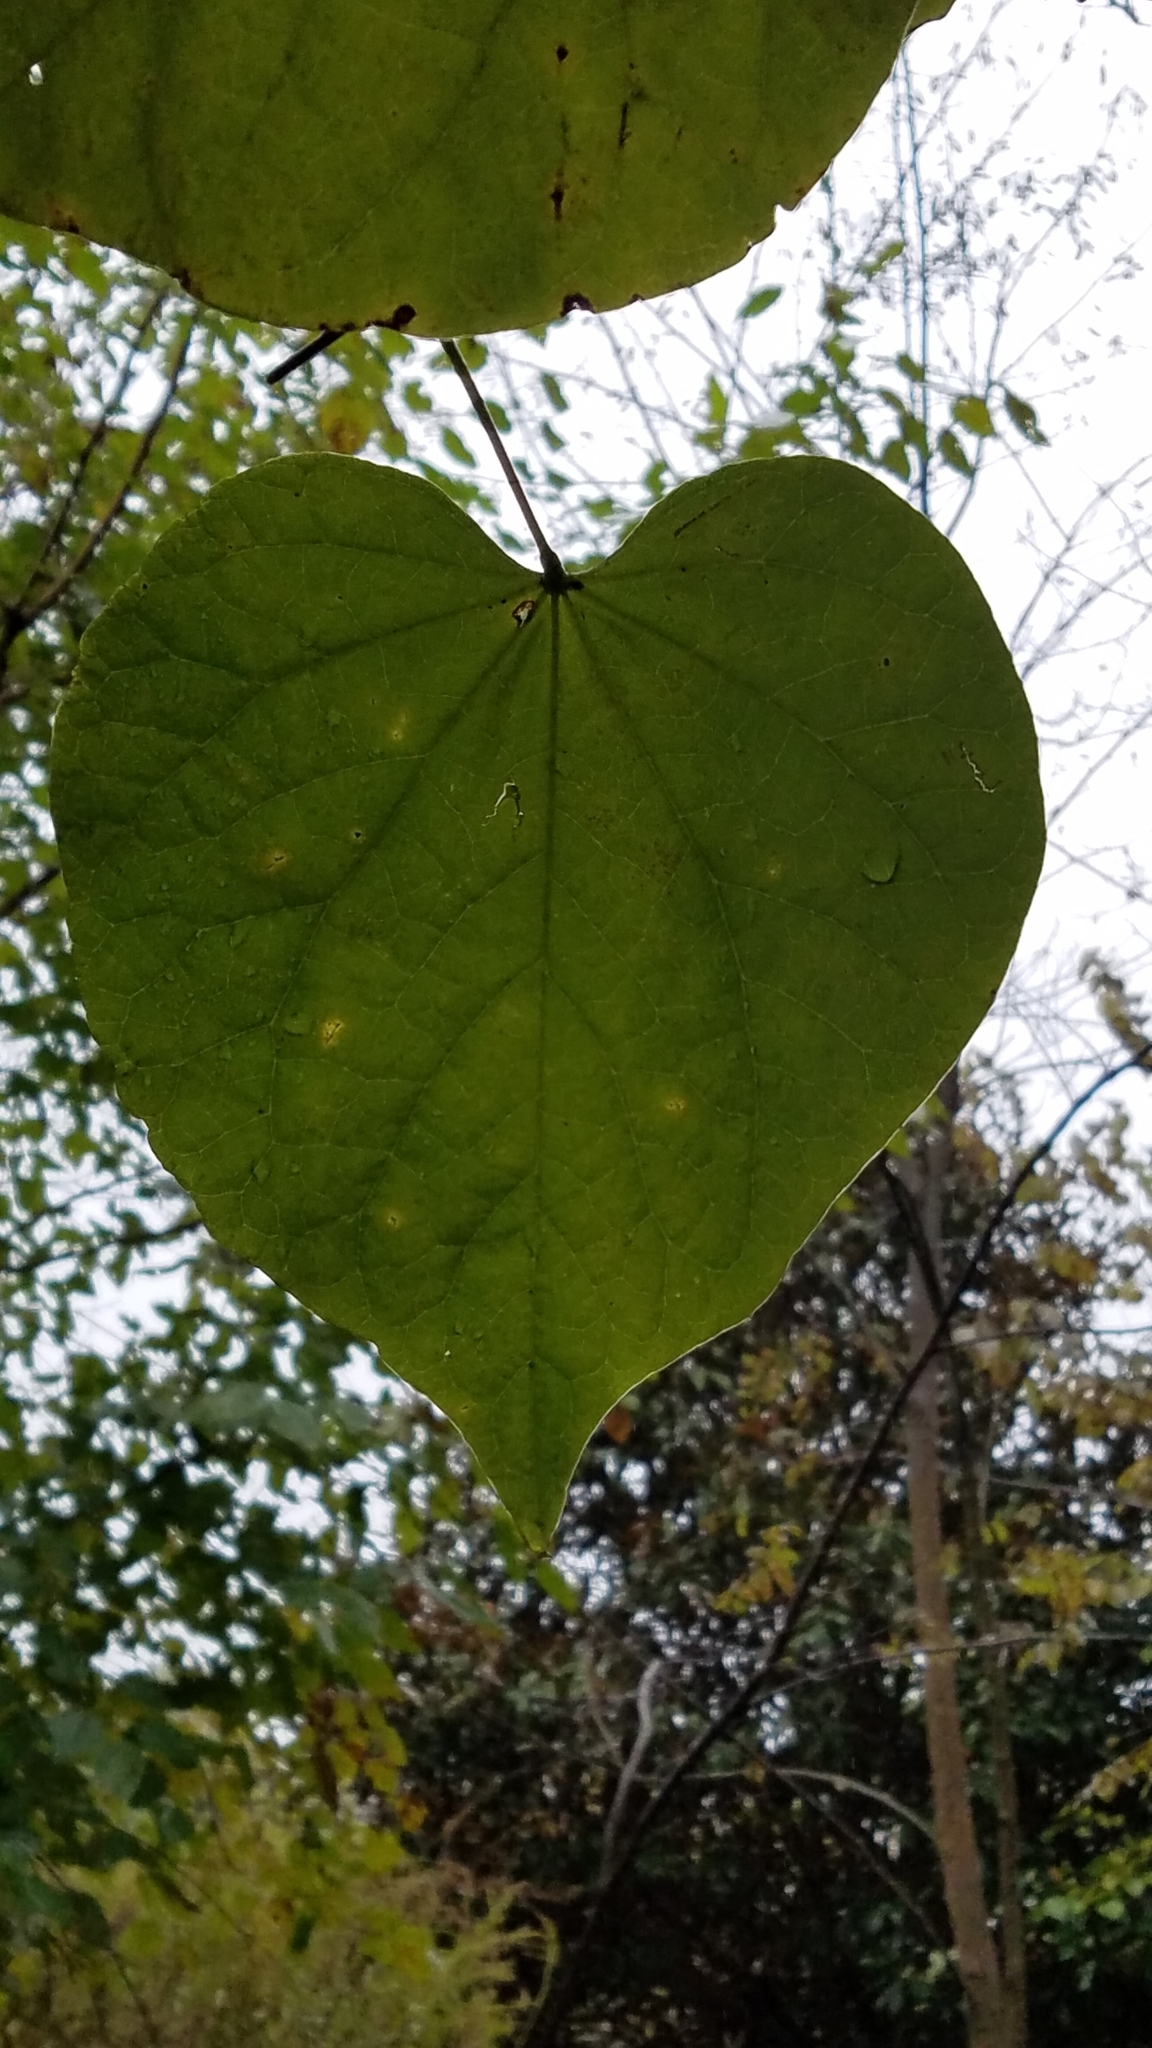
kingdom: Plantae
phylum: Tracheophyta
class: Magnoliopsida
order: Fabales
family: Fabaceae
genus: Cercis
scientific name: Cercis canadensis
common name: Eastern redbud
